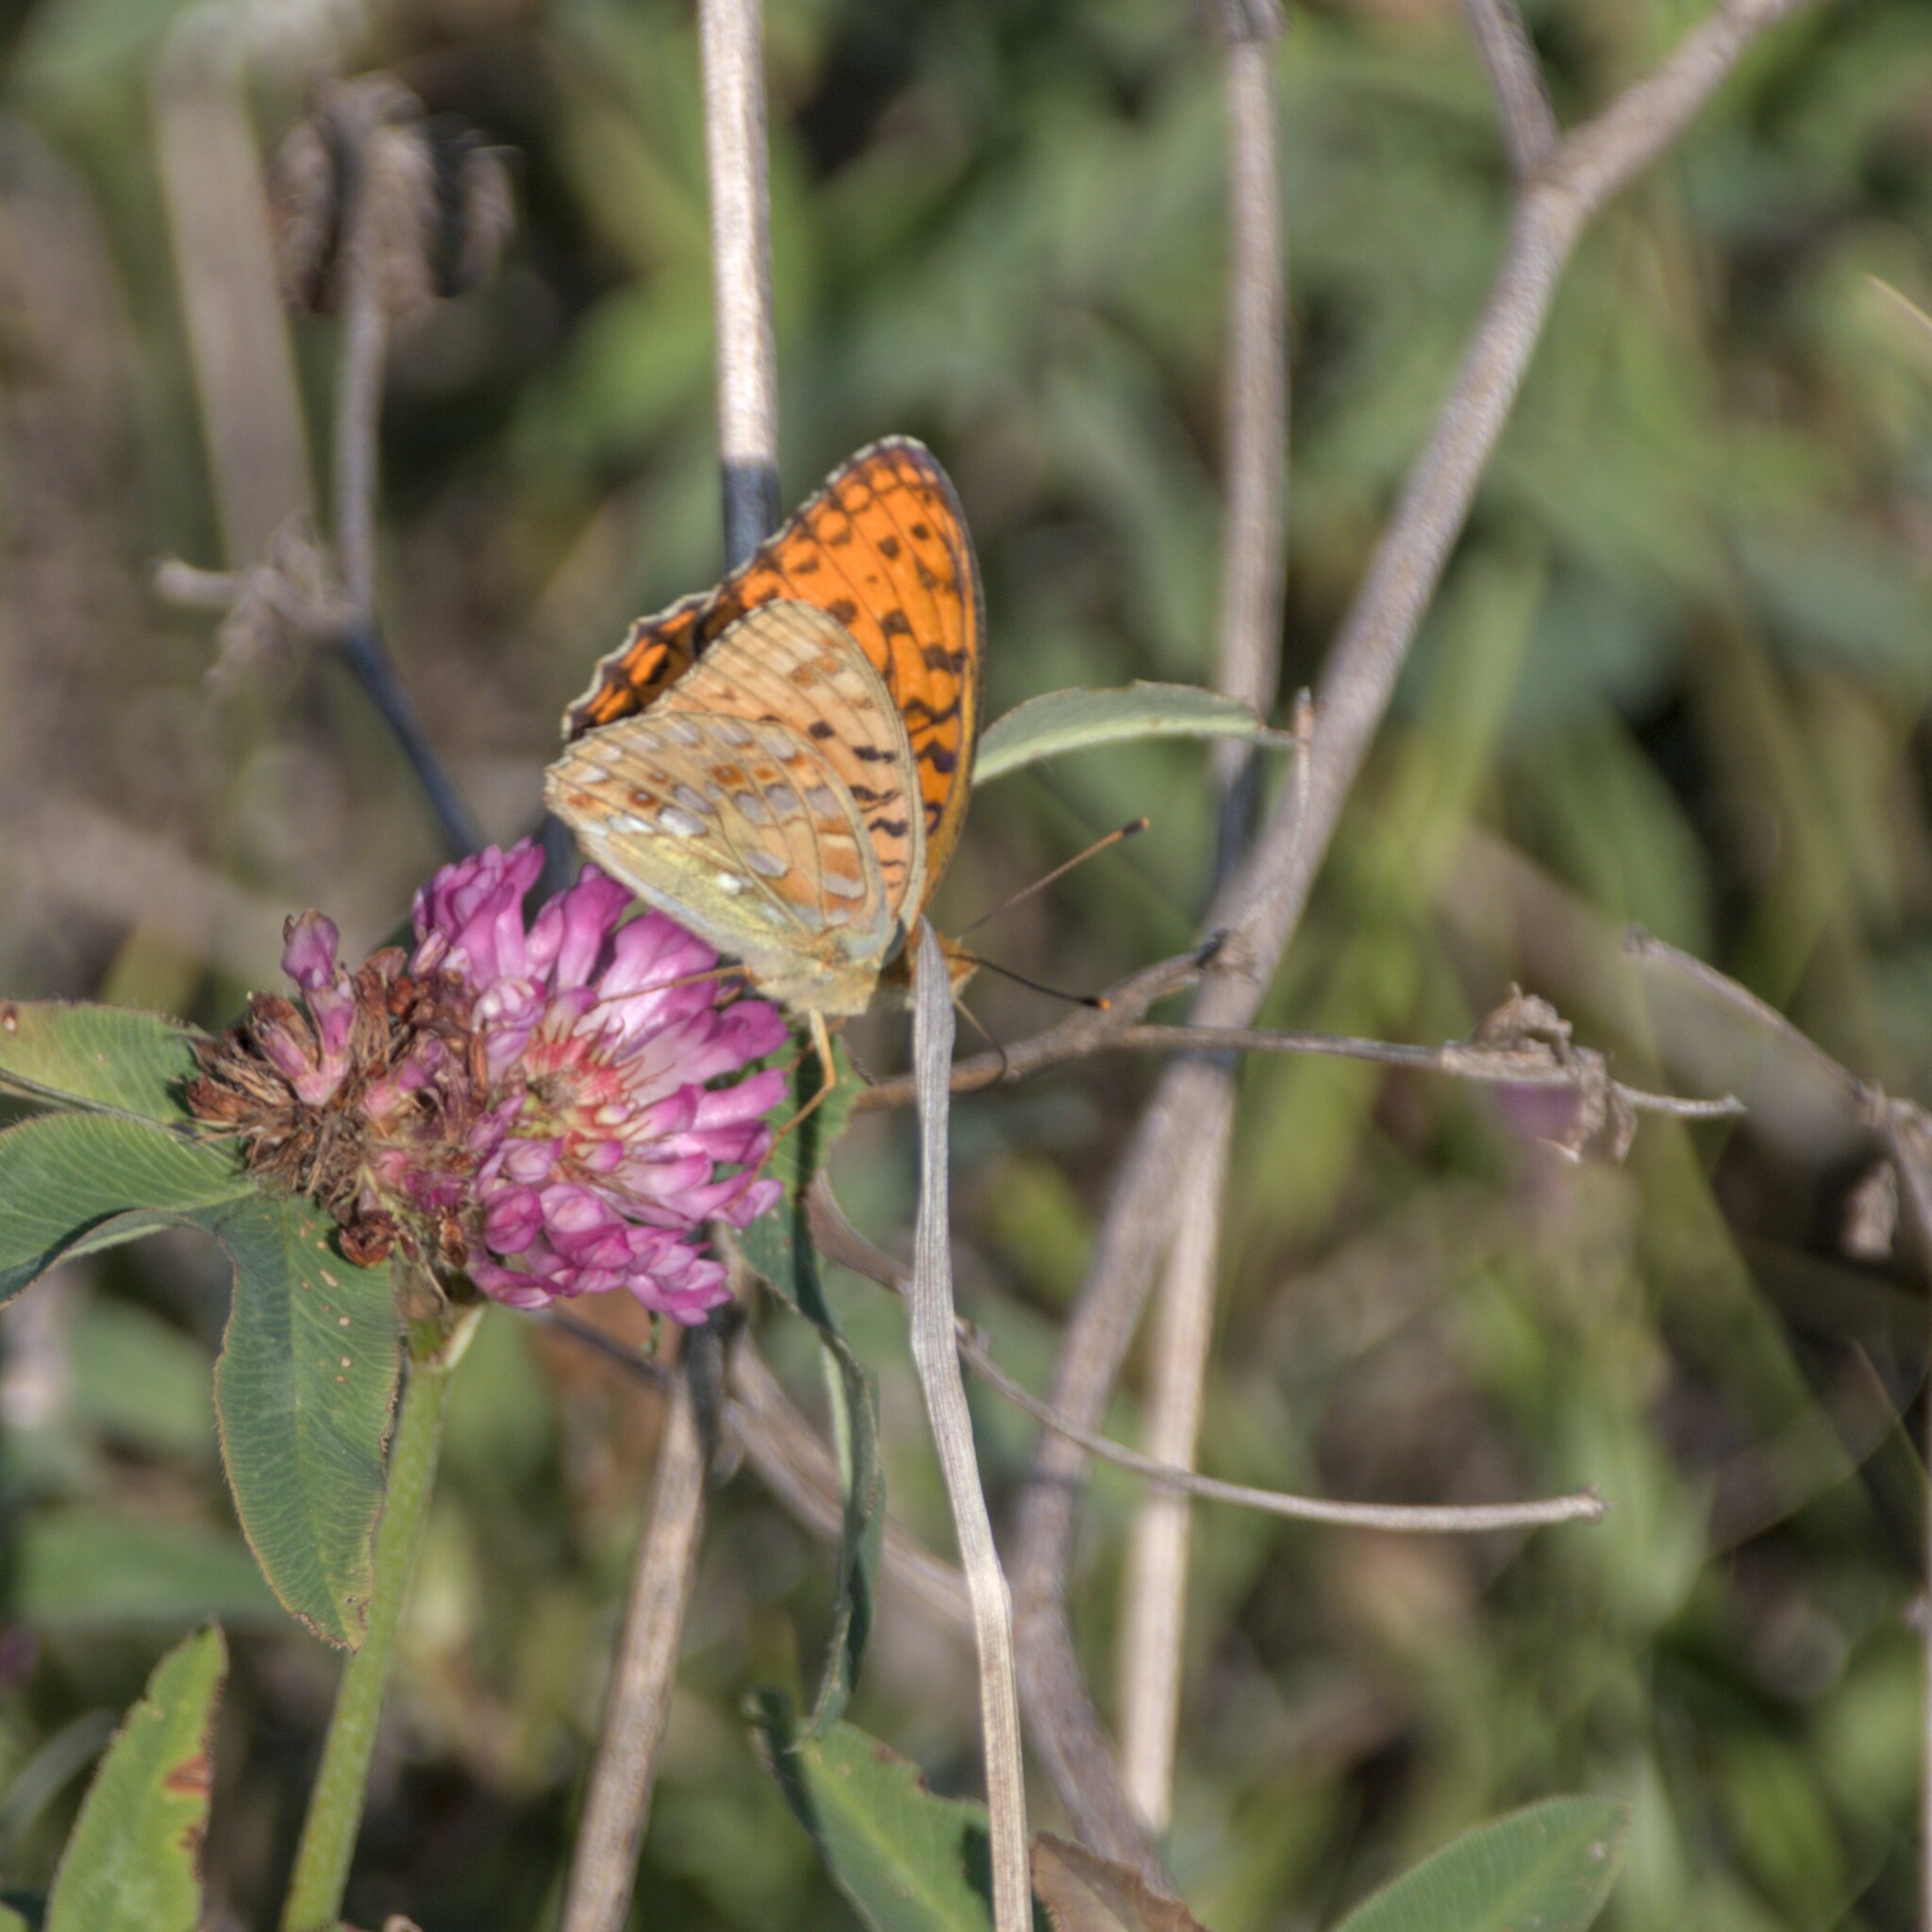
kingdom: Animalia
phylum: Arthropoda
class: Insecta
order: Lepidoptera
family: Nymphalidae
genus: Fabriciana
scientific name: Fabriciana adippe
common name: High brown fritillary
